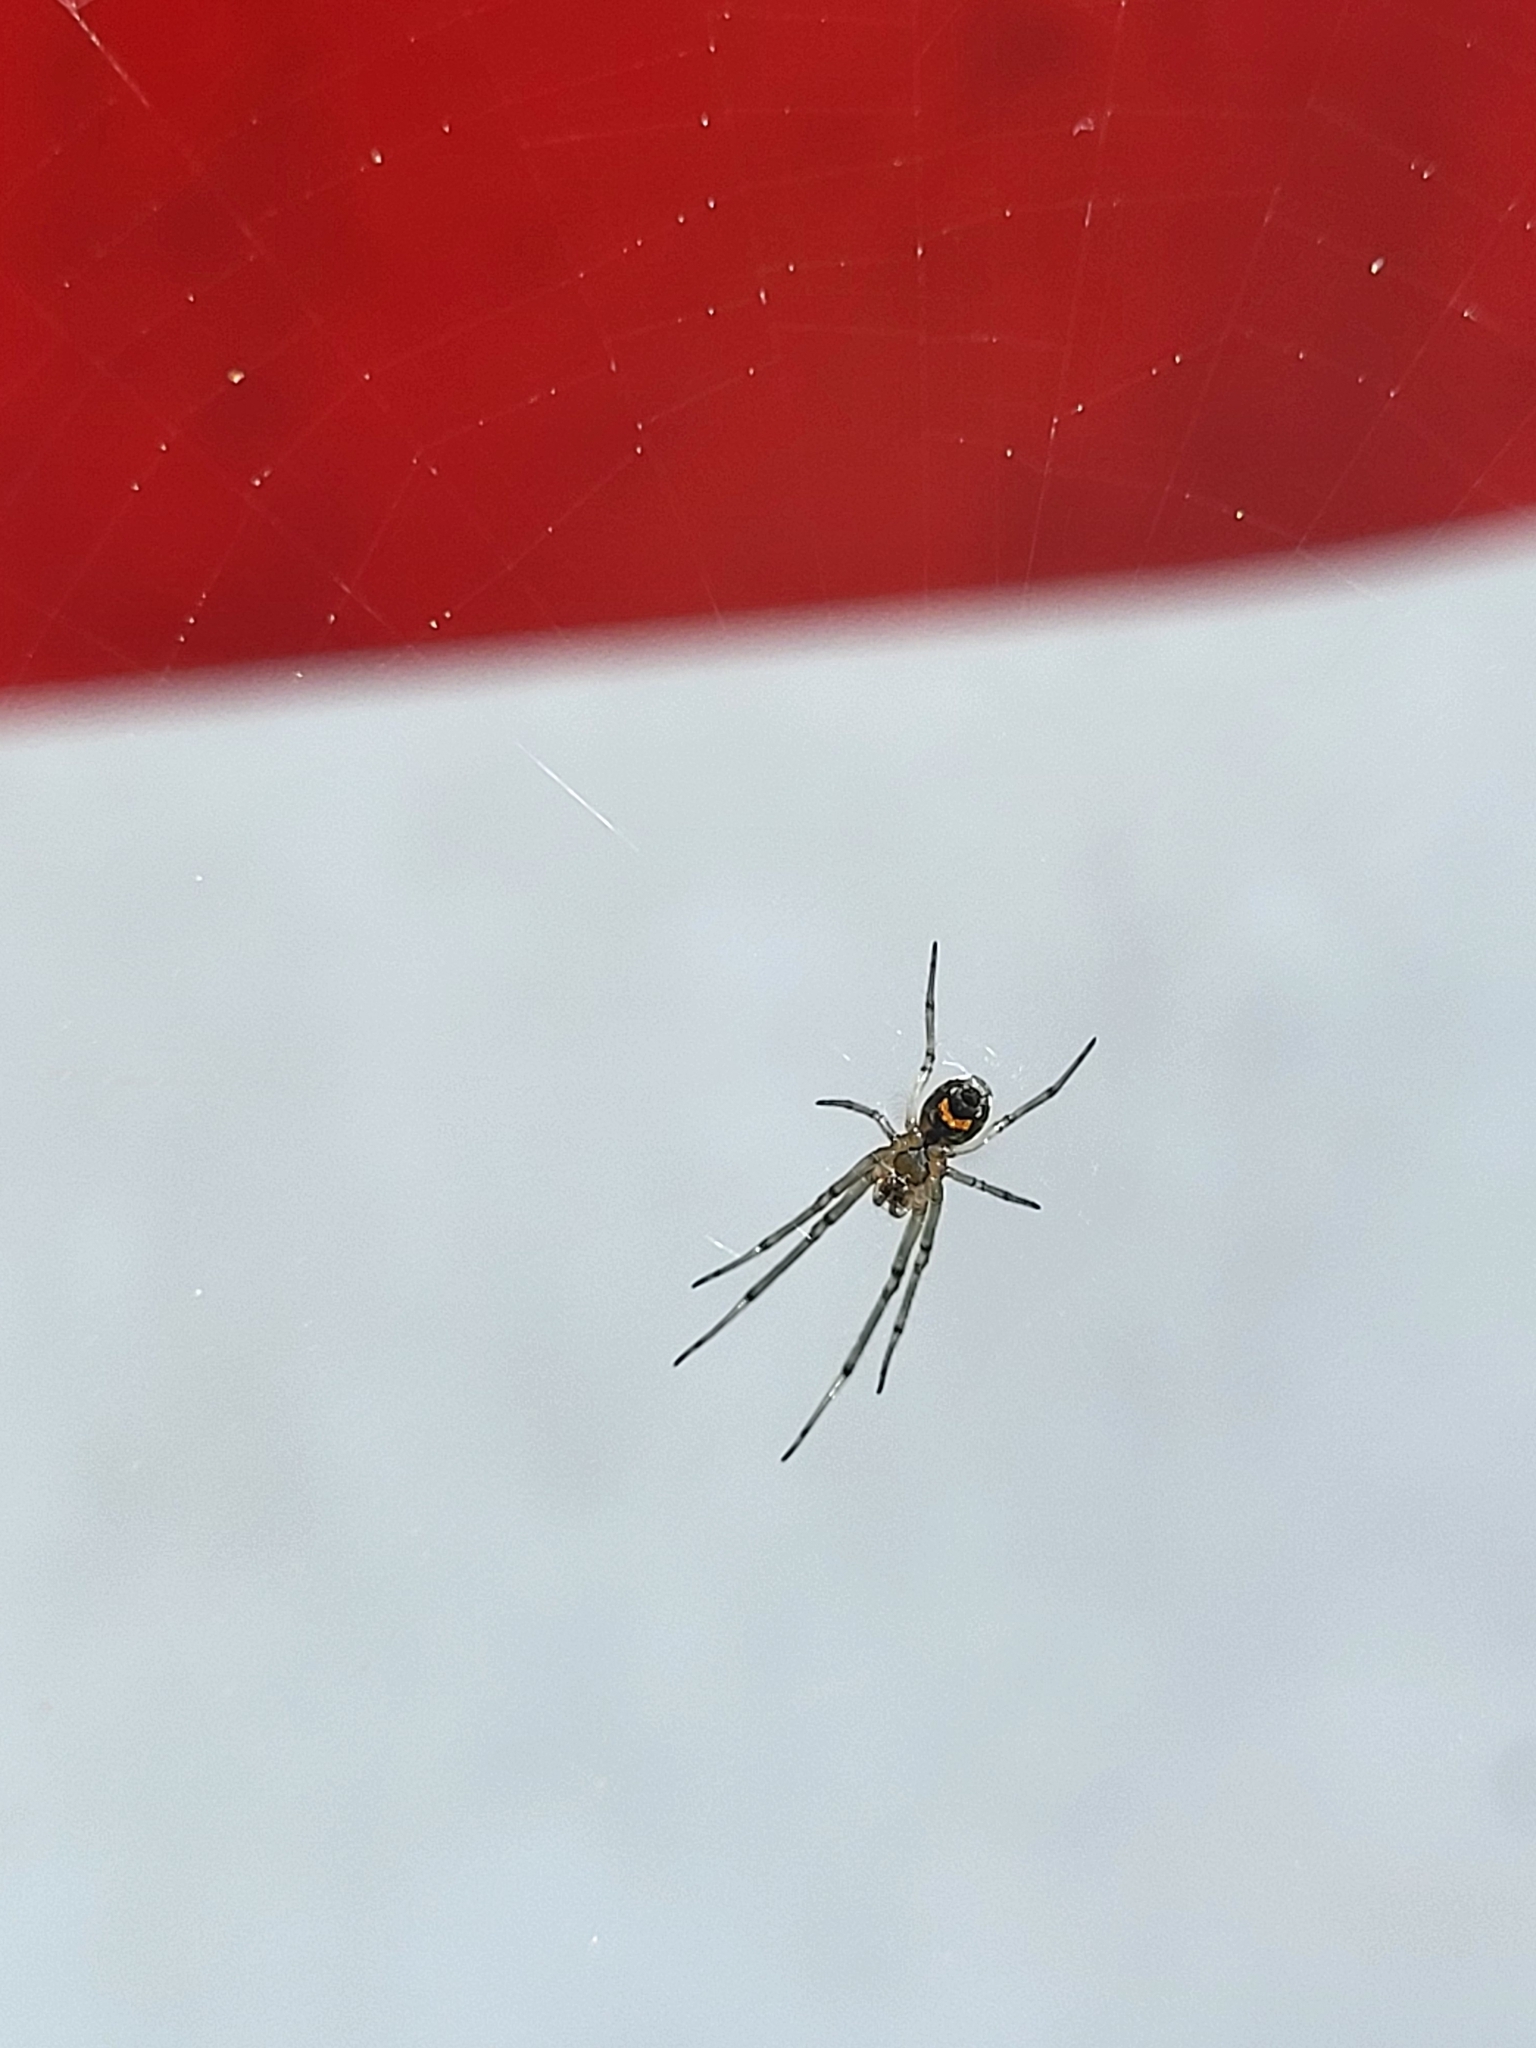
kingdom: Animalia
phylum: Arthropoda
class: Arachnida
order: Araneae
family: Tetragnathidae
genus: Leucauge
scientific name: Leucauge venusta
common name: Longjawed orb weavers
